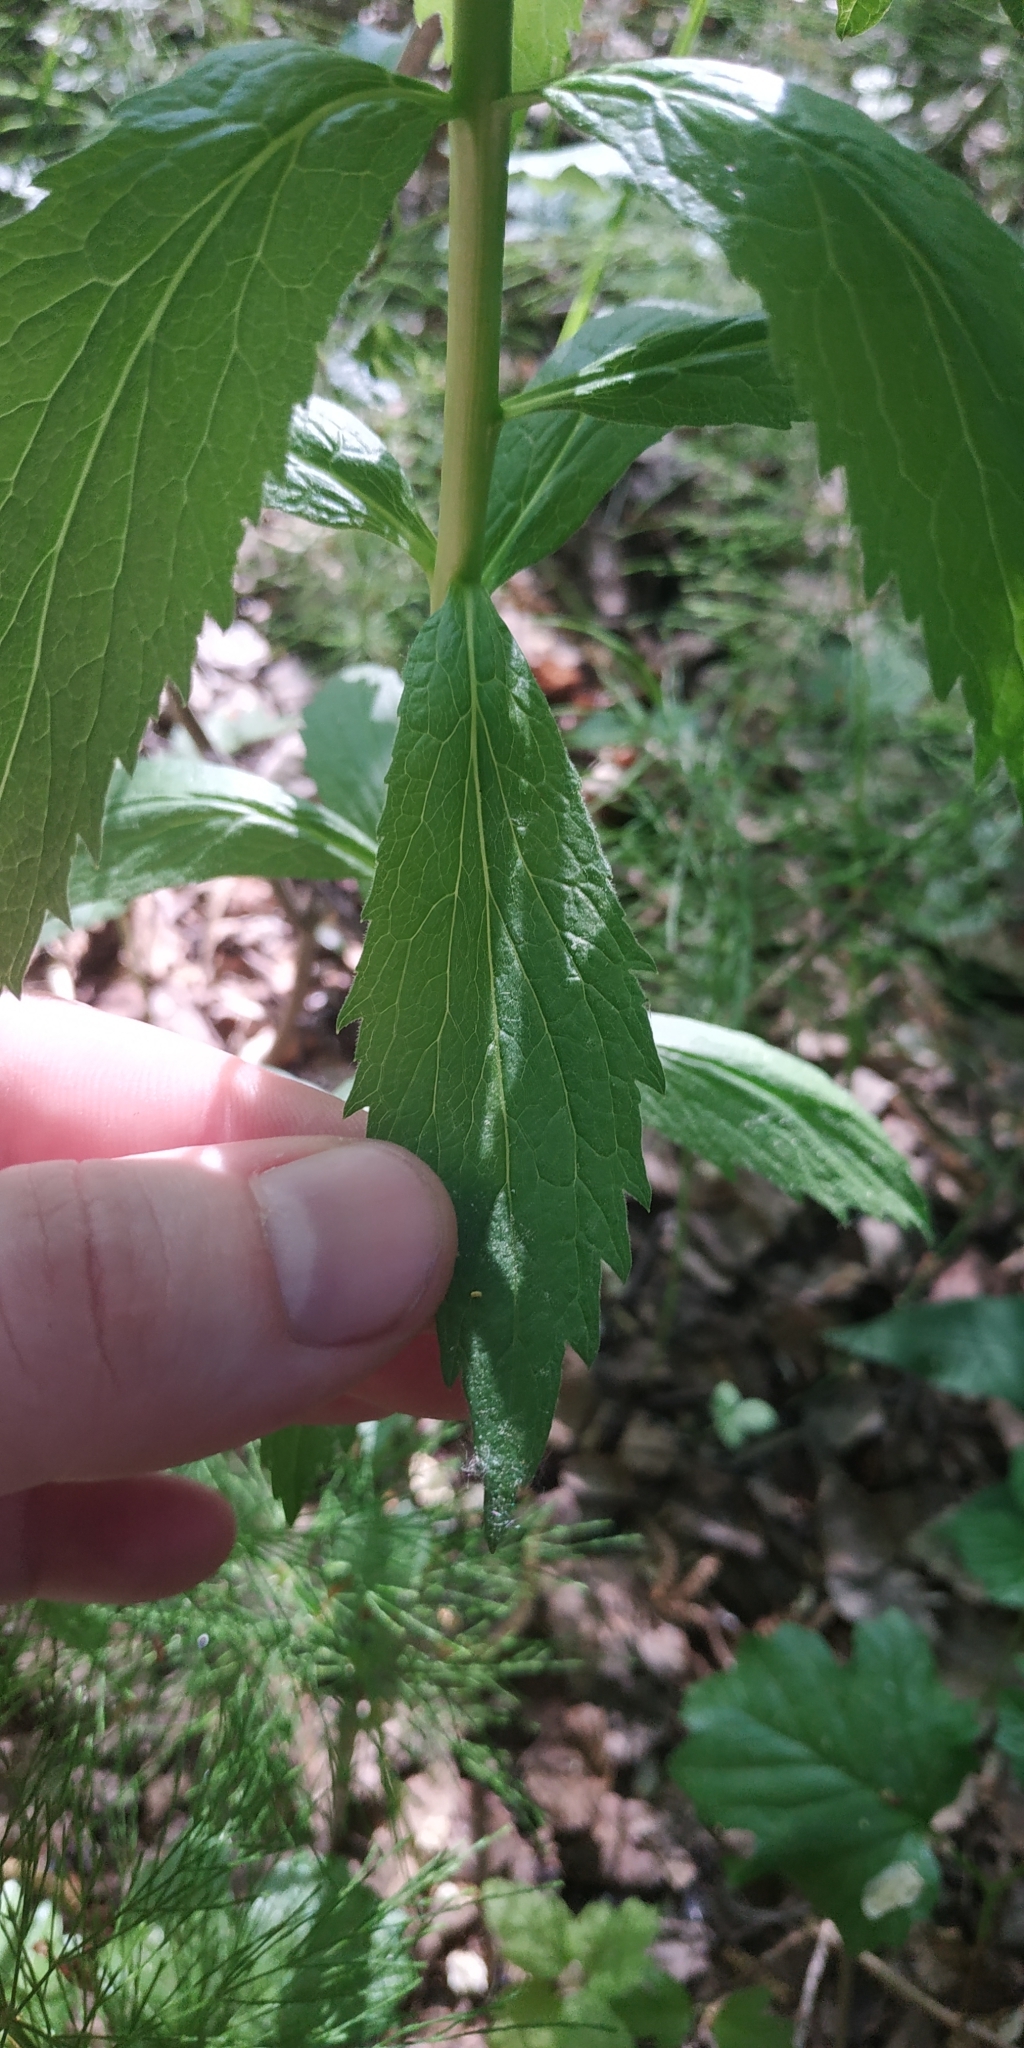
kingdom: Plantae
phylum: Tracheophyta
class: Magnoliopsida
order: Asterales
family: Campanulaceae
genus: Adenophora
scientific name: Adenophora liliifolia
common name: Lilyleaf ladybells
